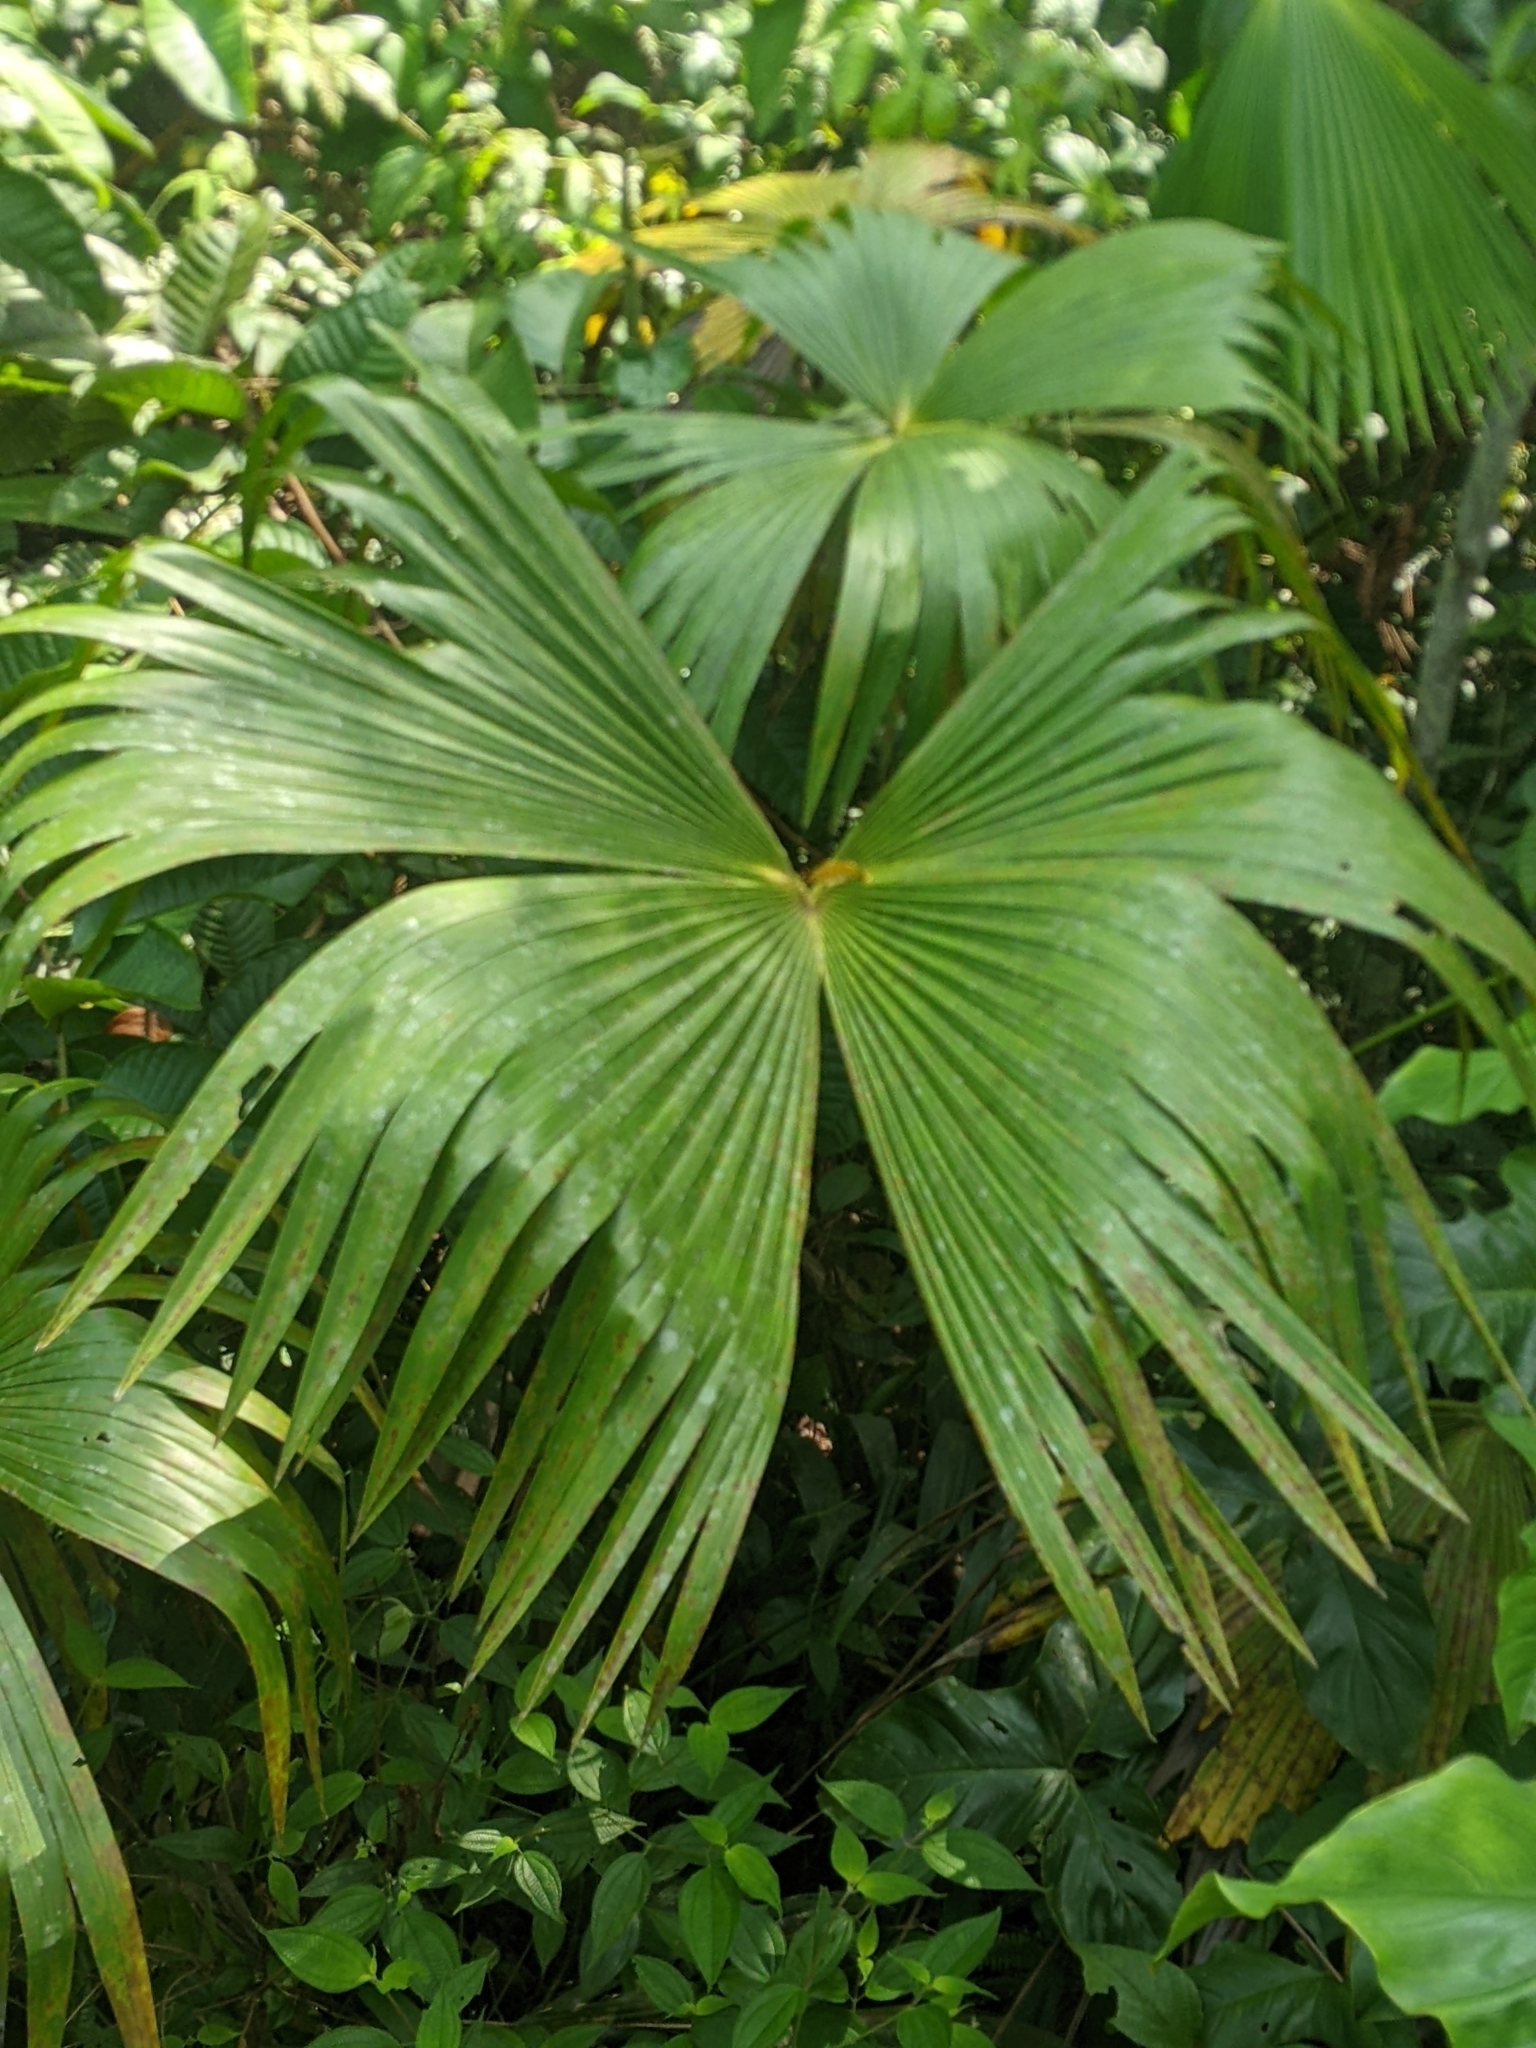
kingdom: Plantae
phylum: Tracheophyta
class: Liliopsida
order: Pandanales
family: Cyclanthaceae
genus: Carludovica
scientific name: Carludovica palmata
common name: Panama hat plant
